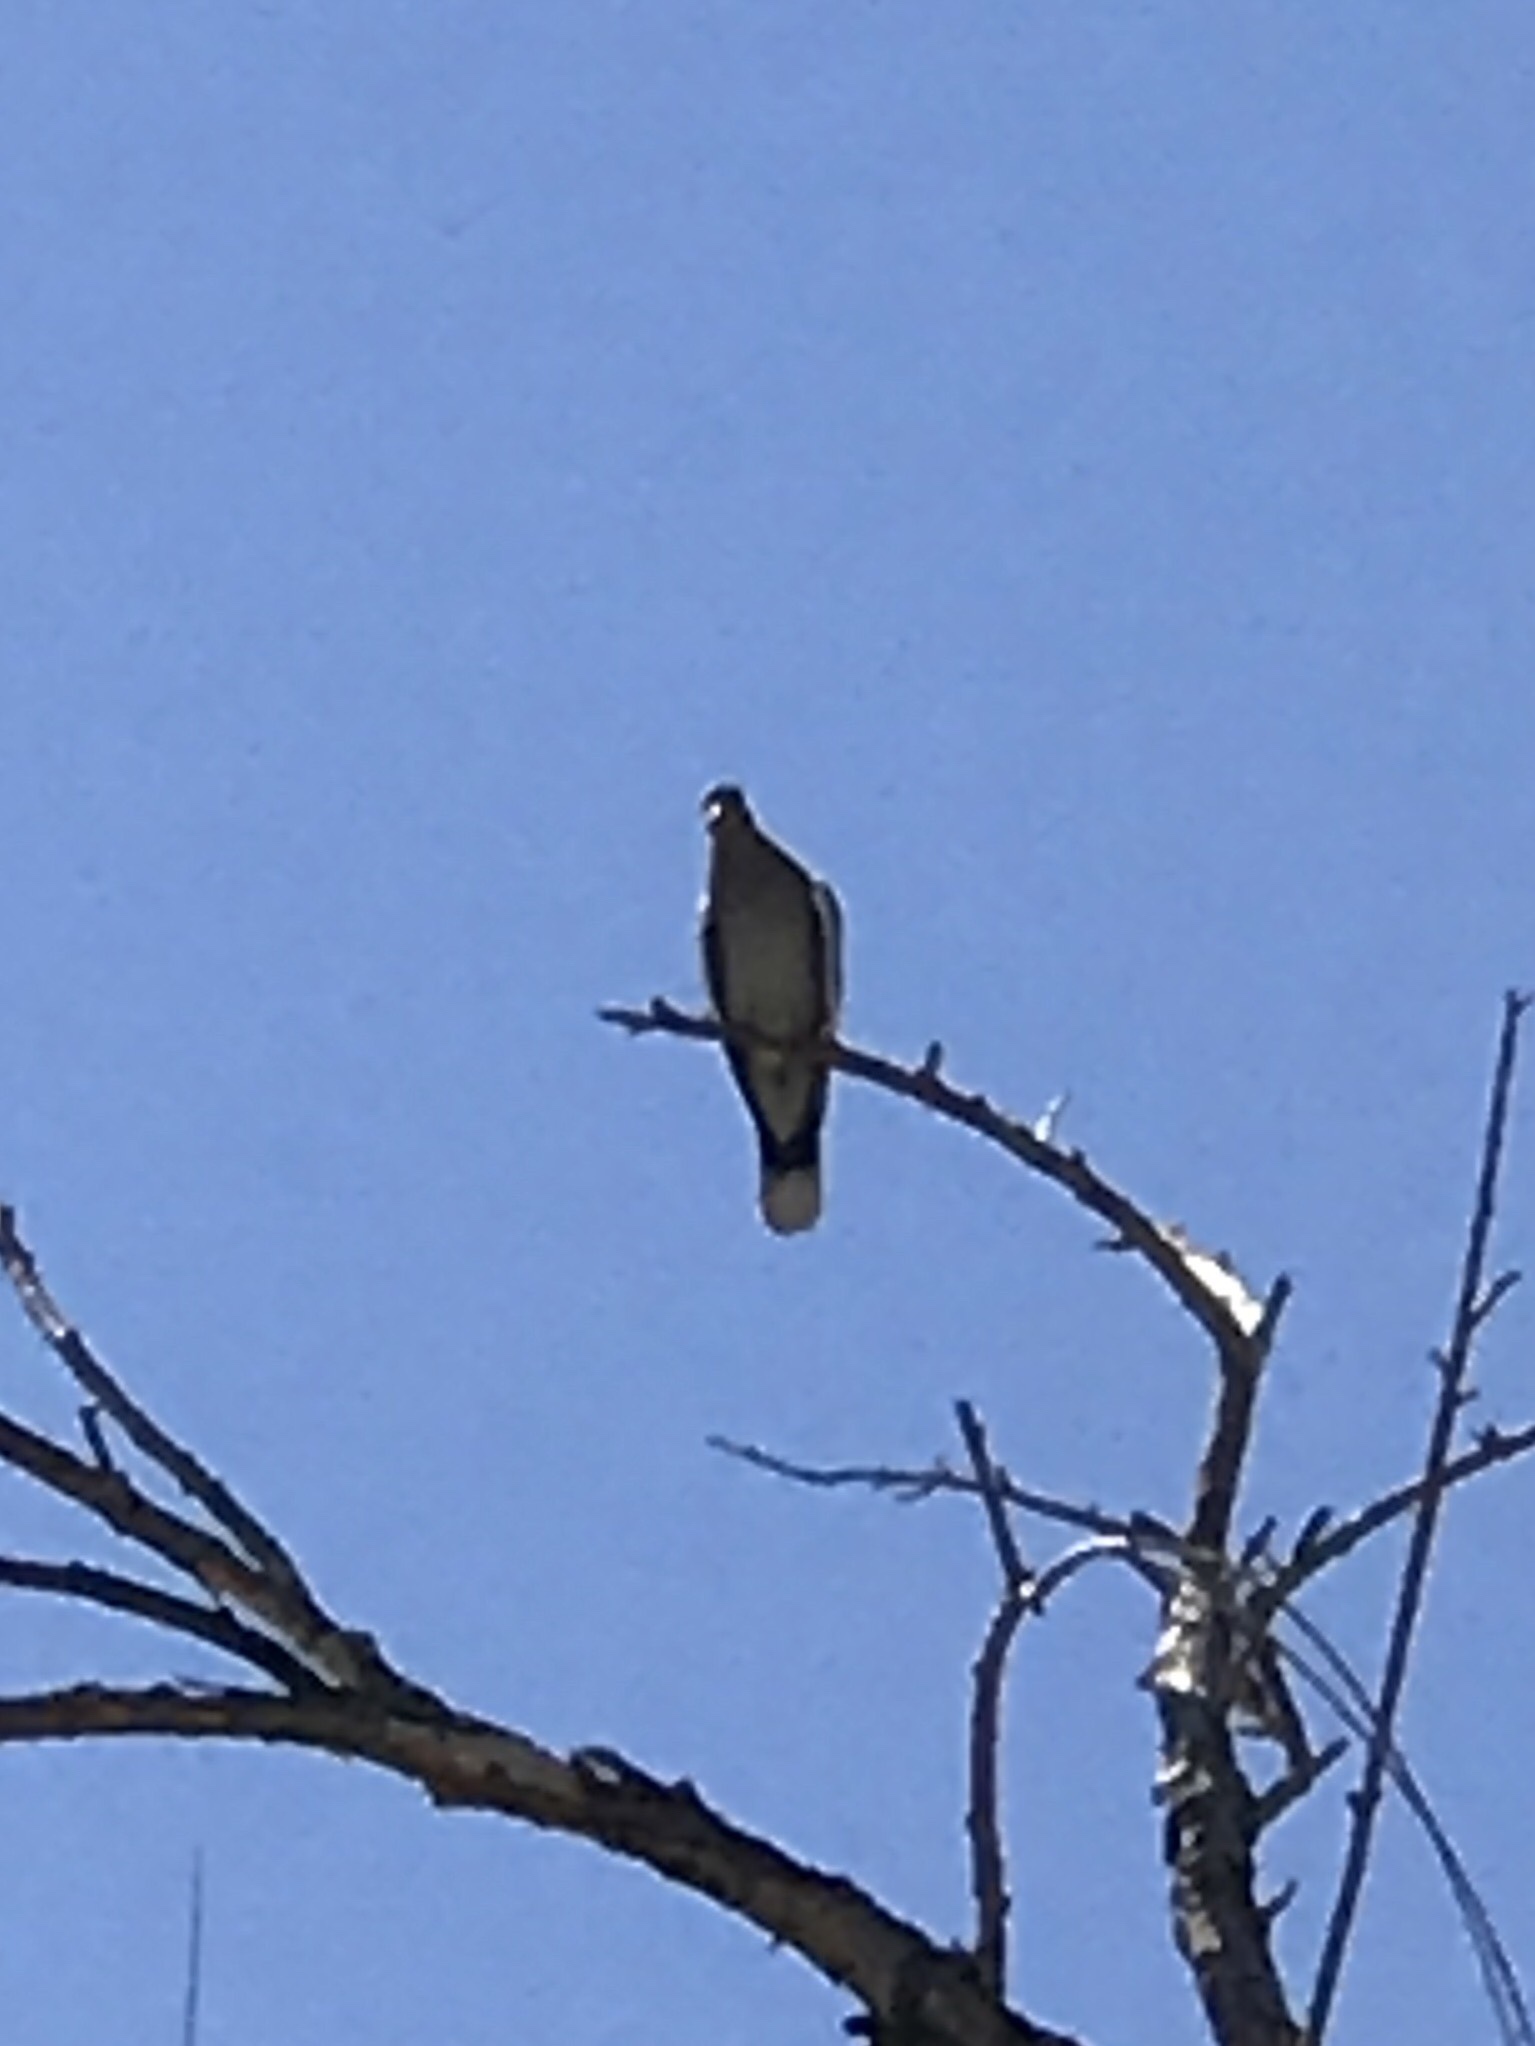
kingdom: Animalia
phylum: Chordata
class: Aves
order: Columbiformes
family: Columbidae
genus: Zenaida
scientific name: Zenaida asiatica
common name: White-winged dove
